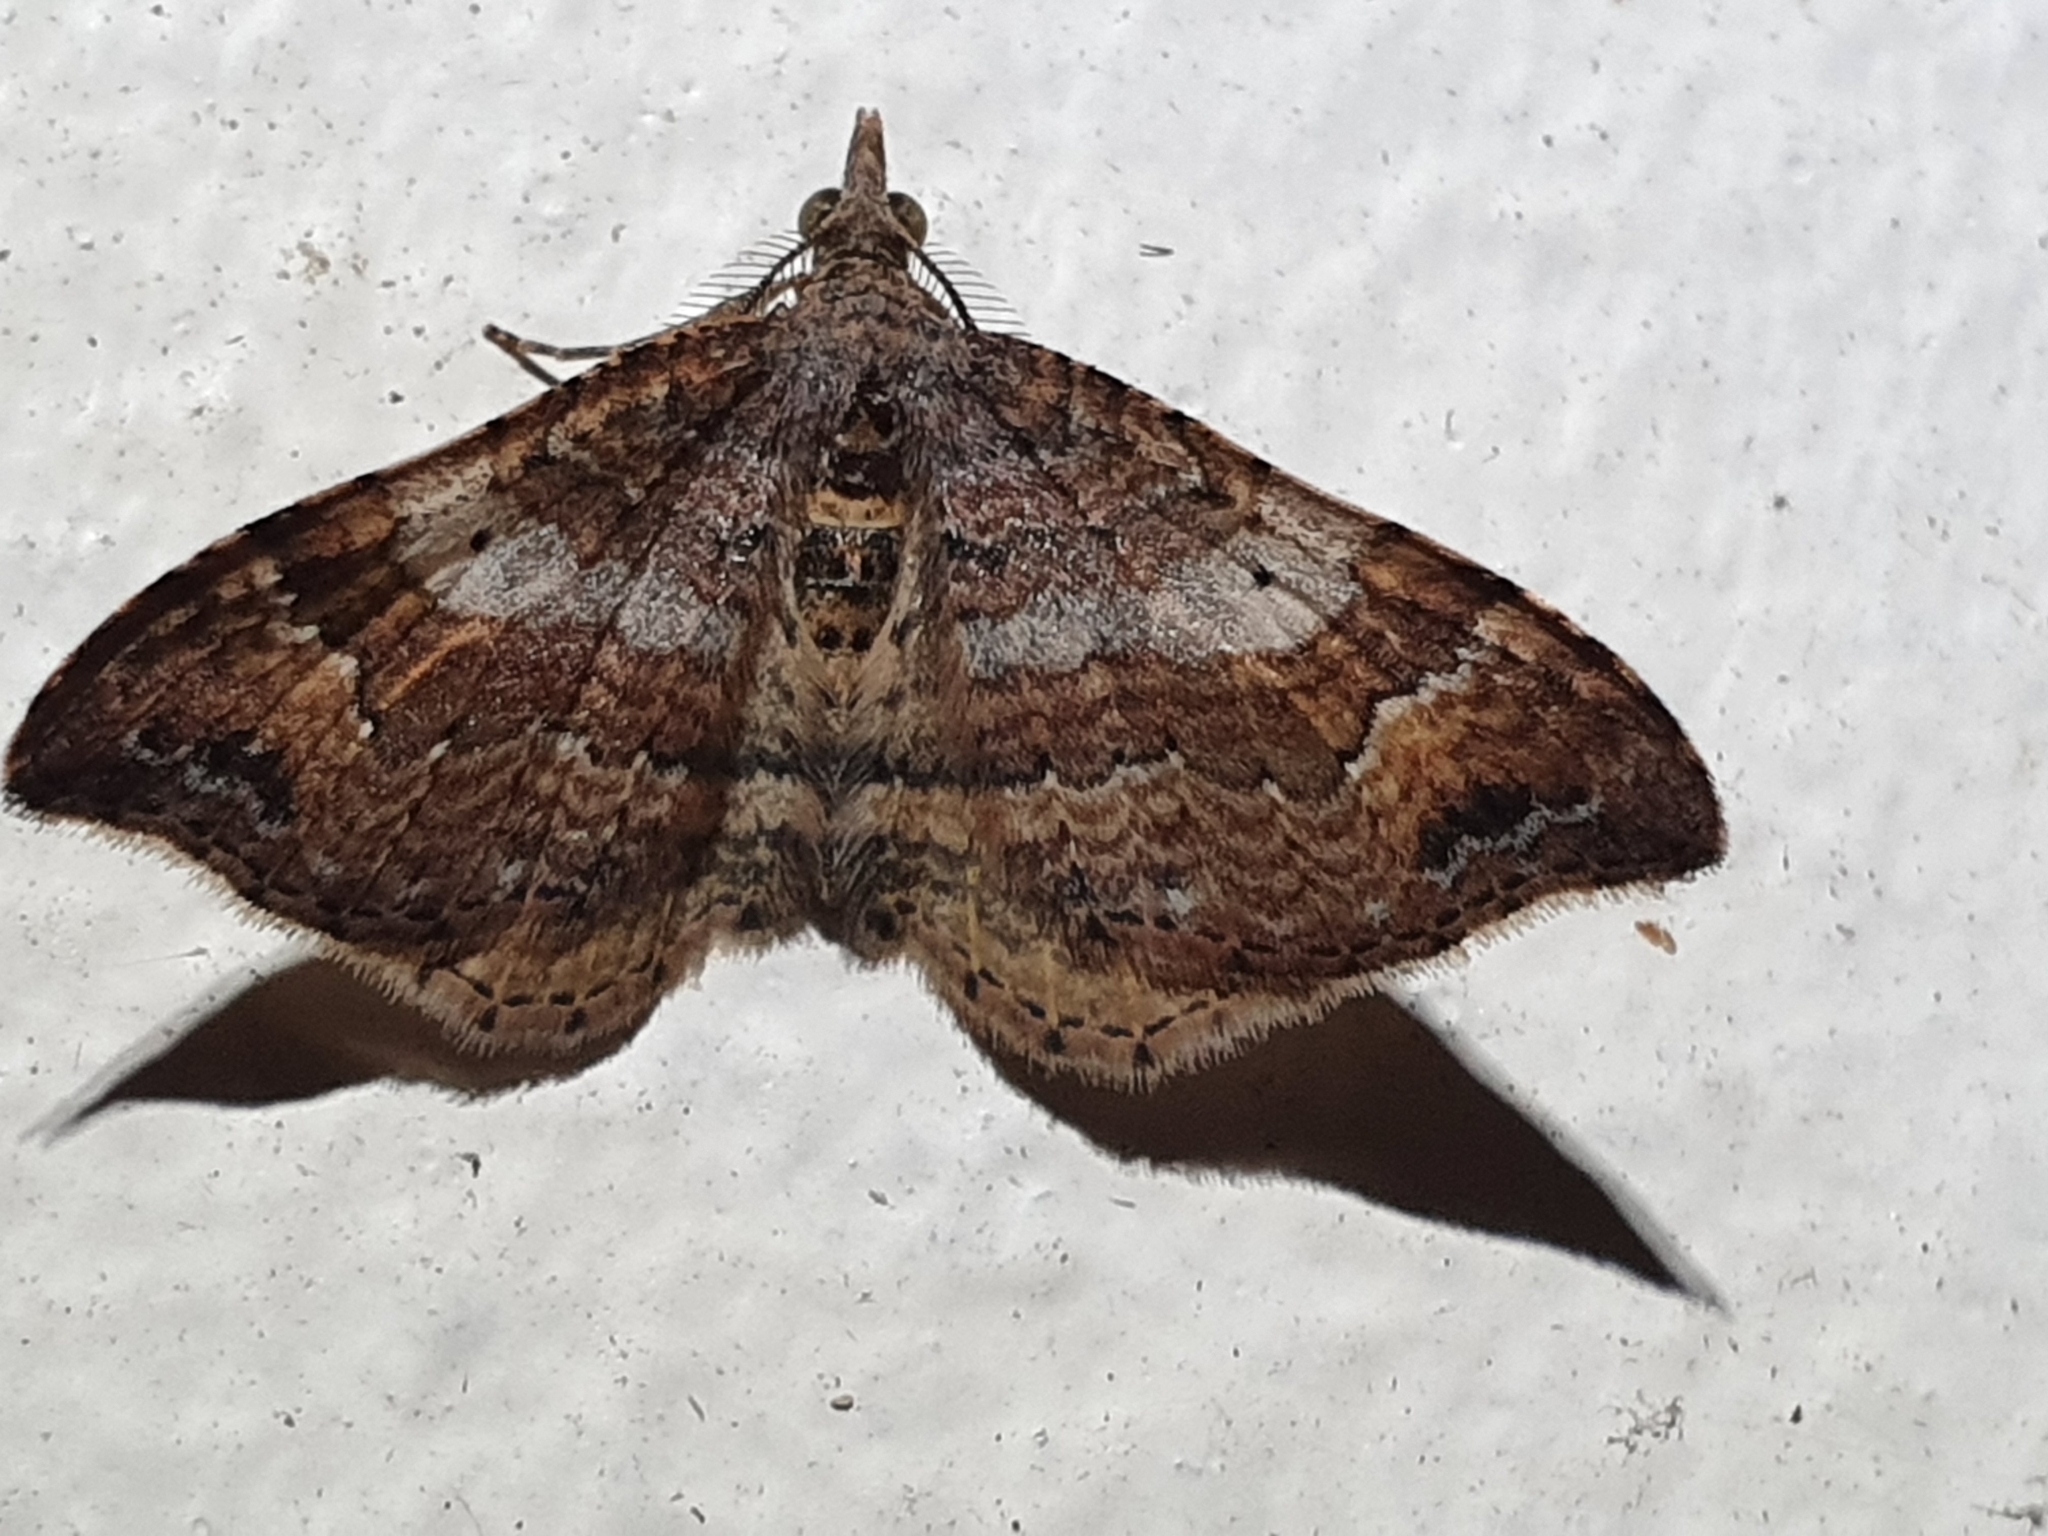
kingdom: Animalia
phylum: Arthropoda
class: Insecta
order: Lepidoptera
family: Geometridae
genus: Homodotis
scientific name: Homodotis megaspilata
